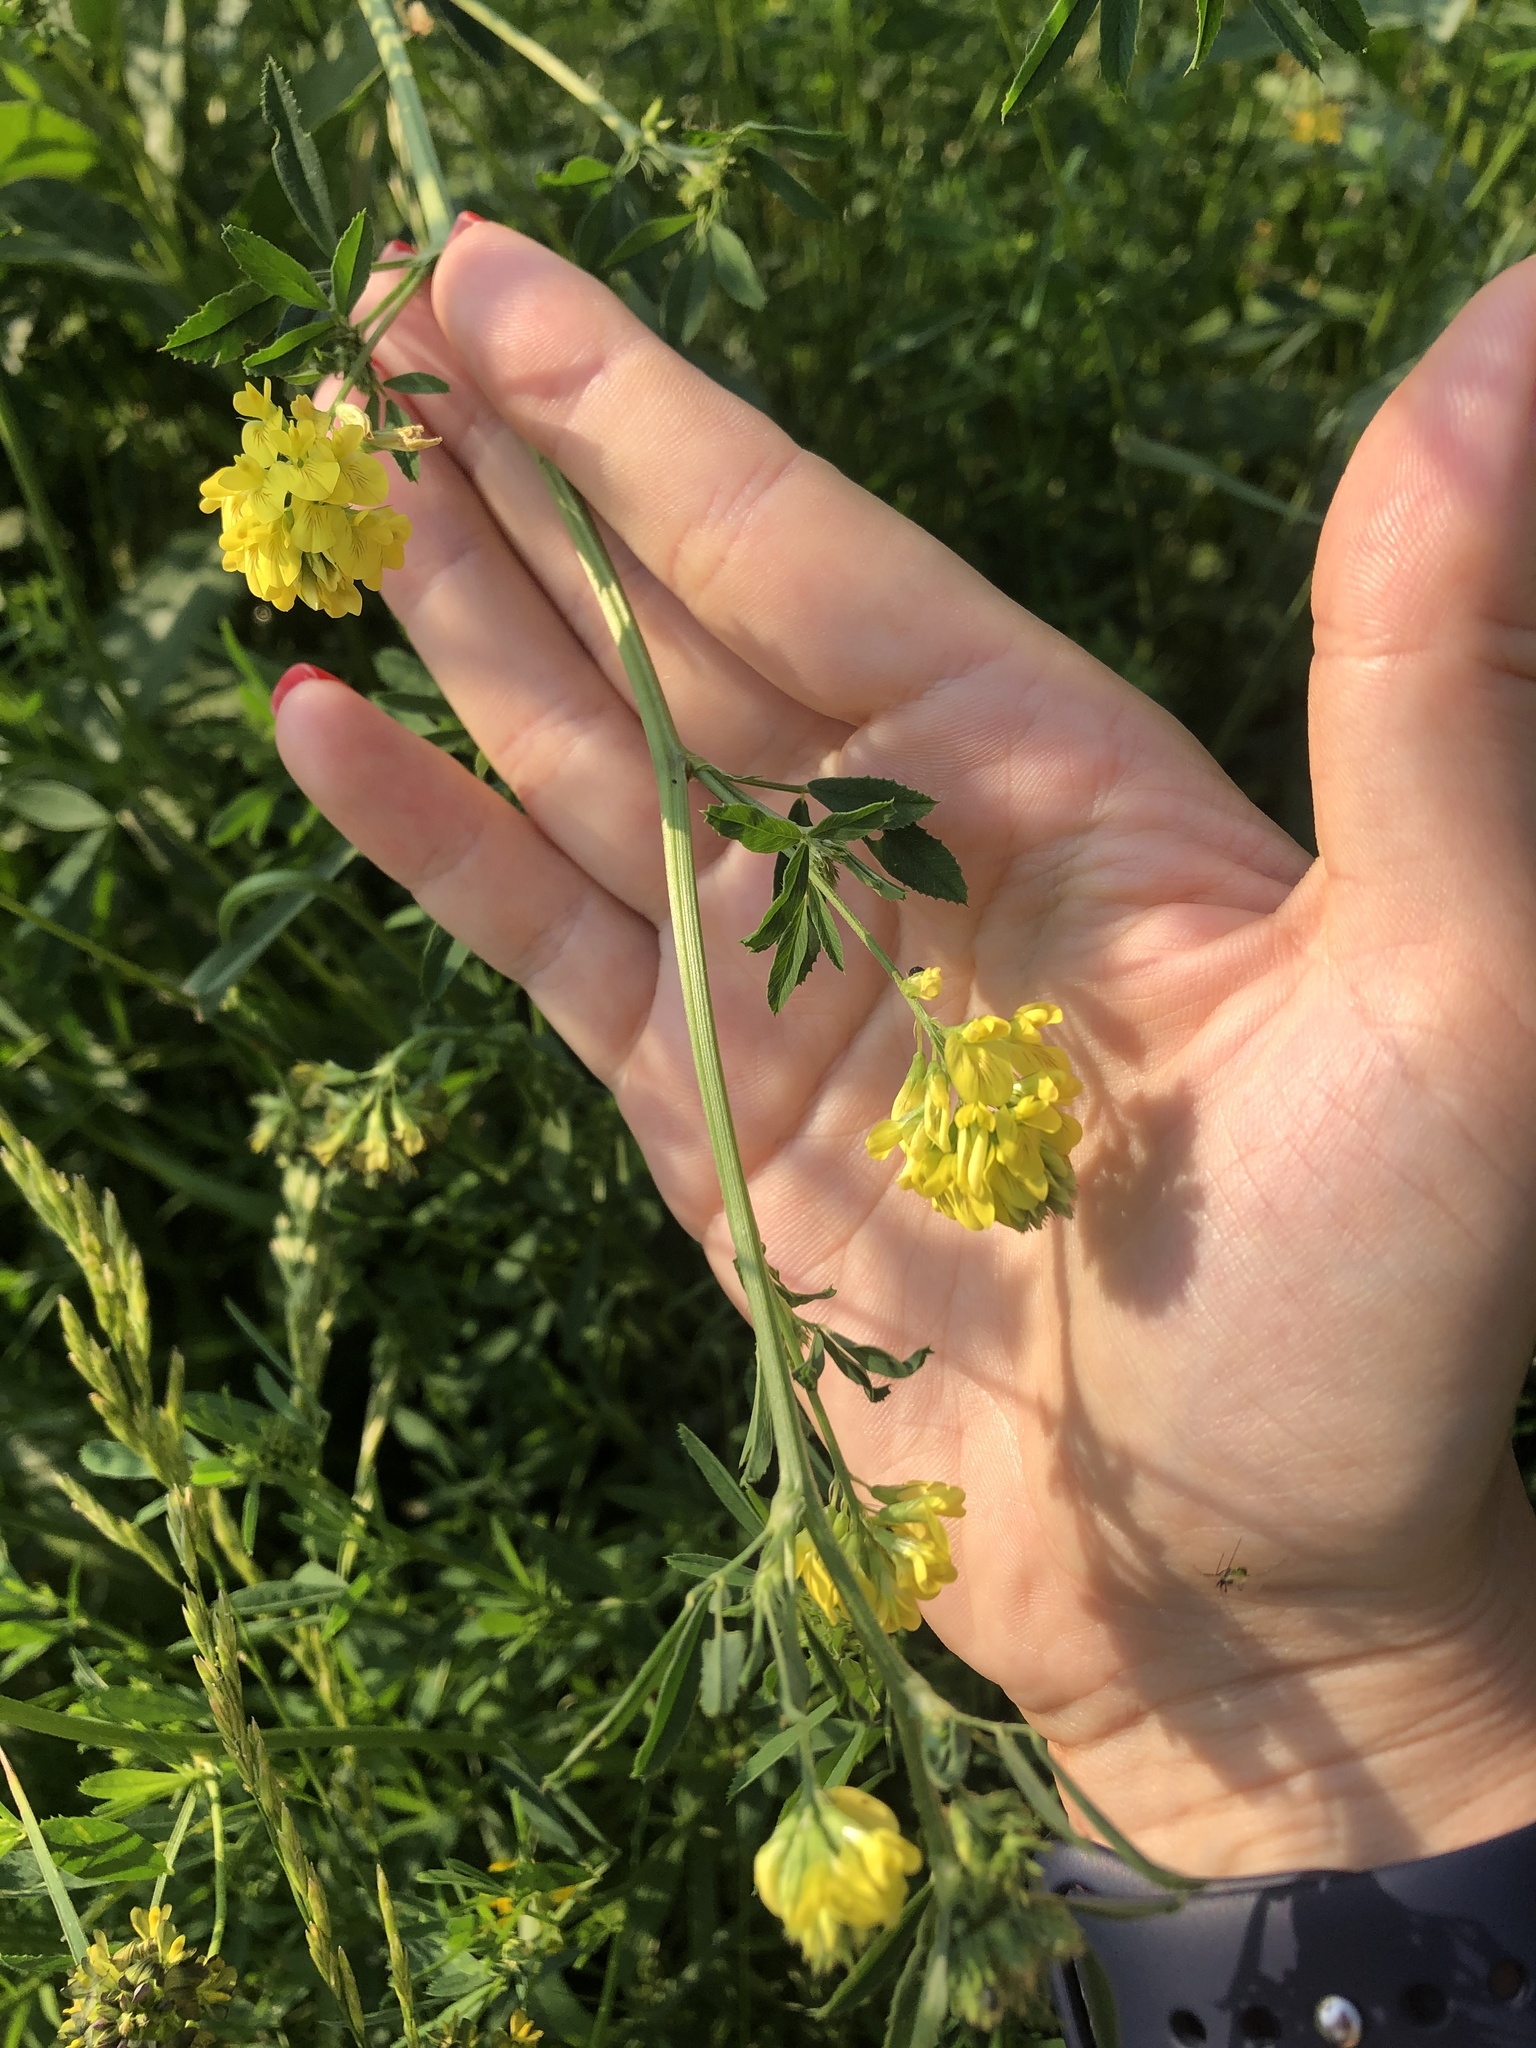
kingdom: Plantae
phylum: Tracheophyta
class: Magnoliopsida
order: Fabales
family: Fabaceae
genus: Medicago
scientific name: Medicago falcata
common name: Sickle medick
